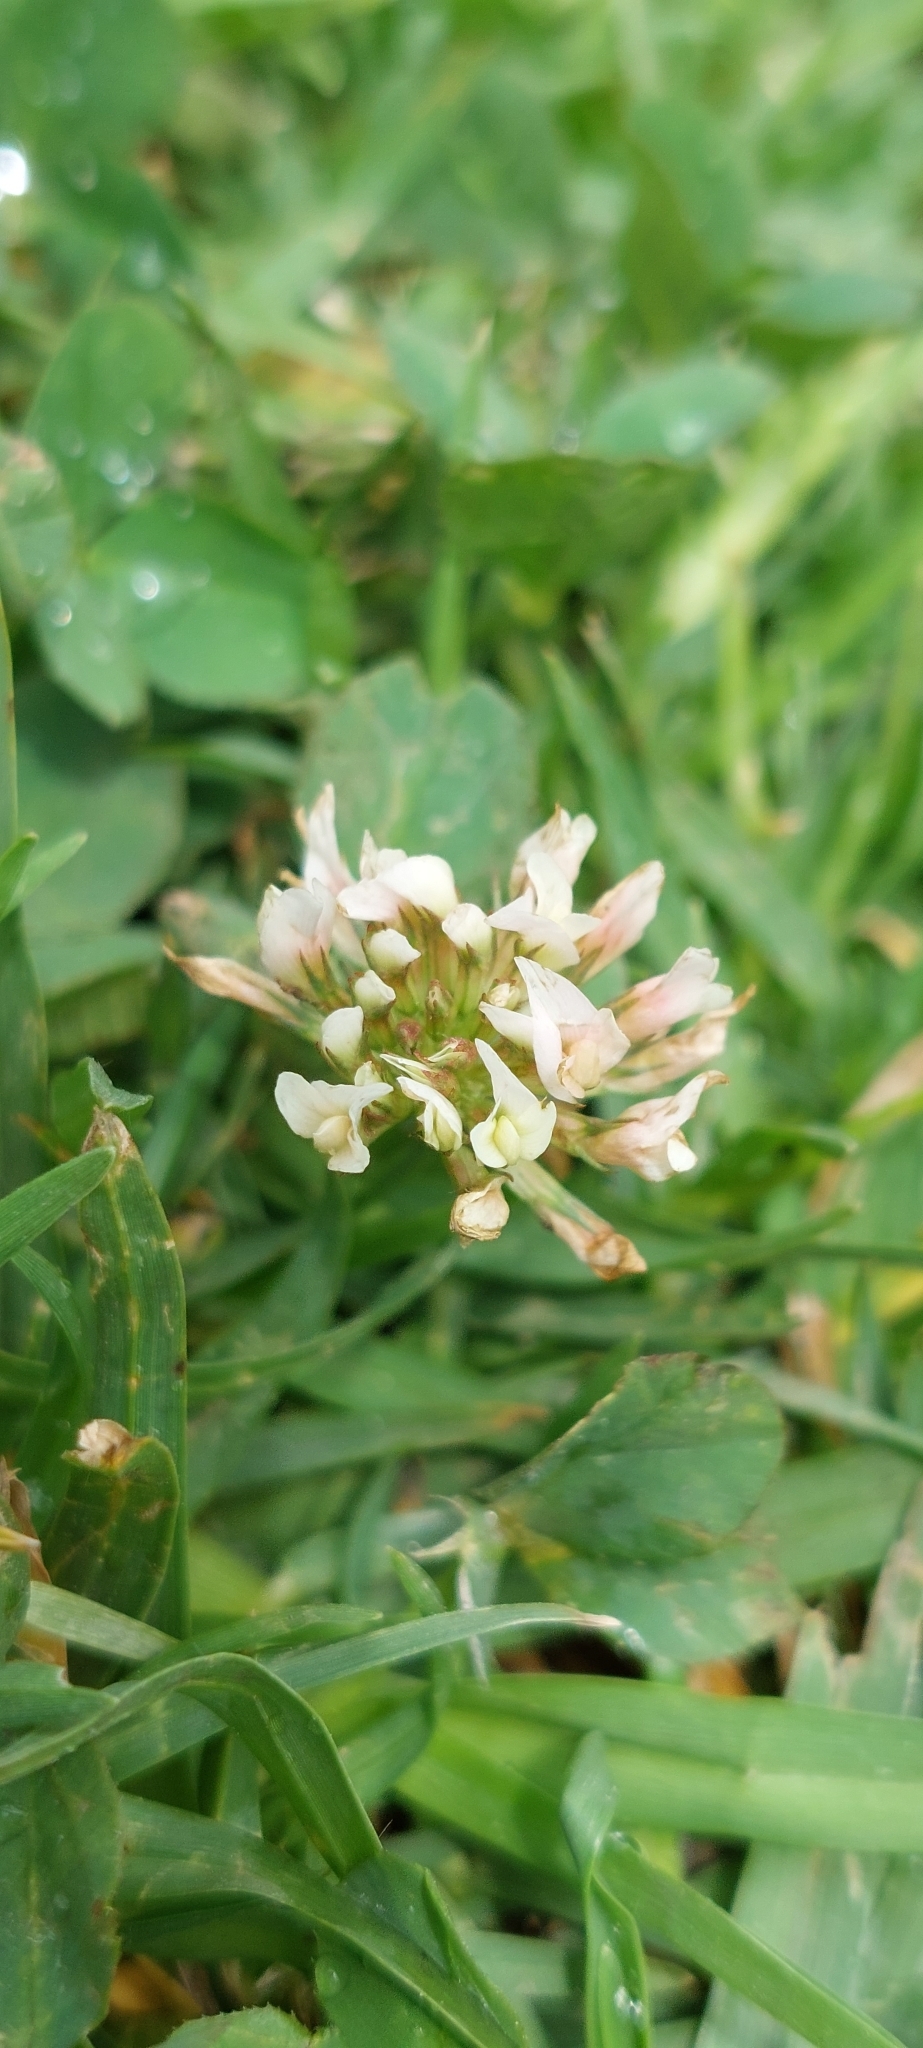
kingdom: Plantae
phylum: Tracheophyta
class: Magnoliopsida
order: Fabales
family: Fabaceae
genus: Trifolium
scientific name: Trifolium repens
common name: White clover
